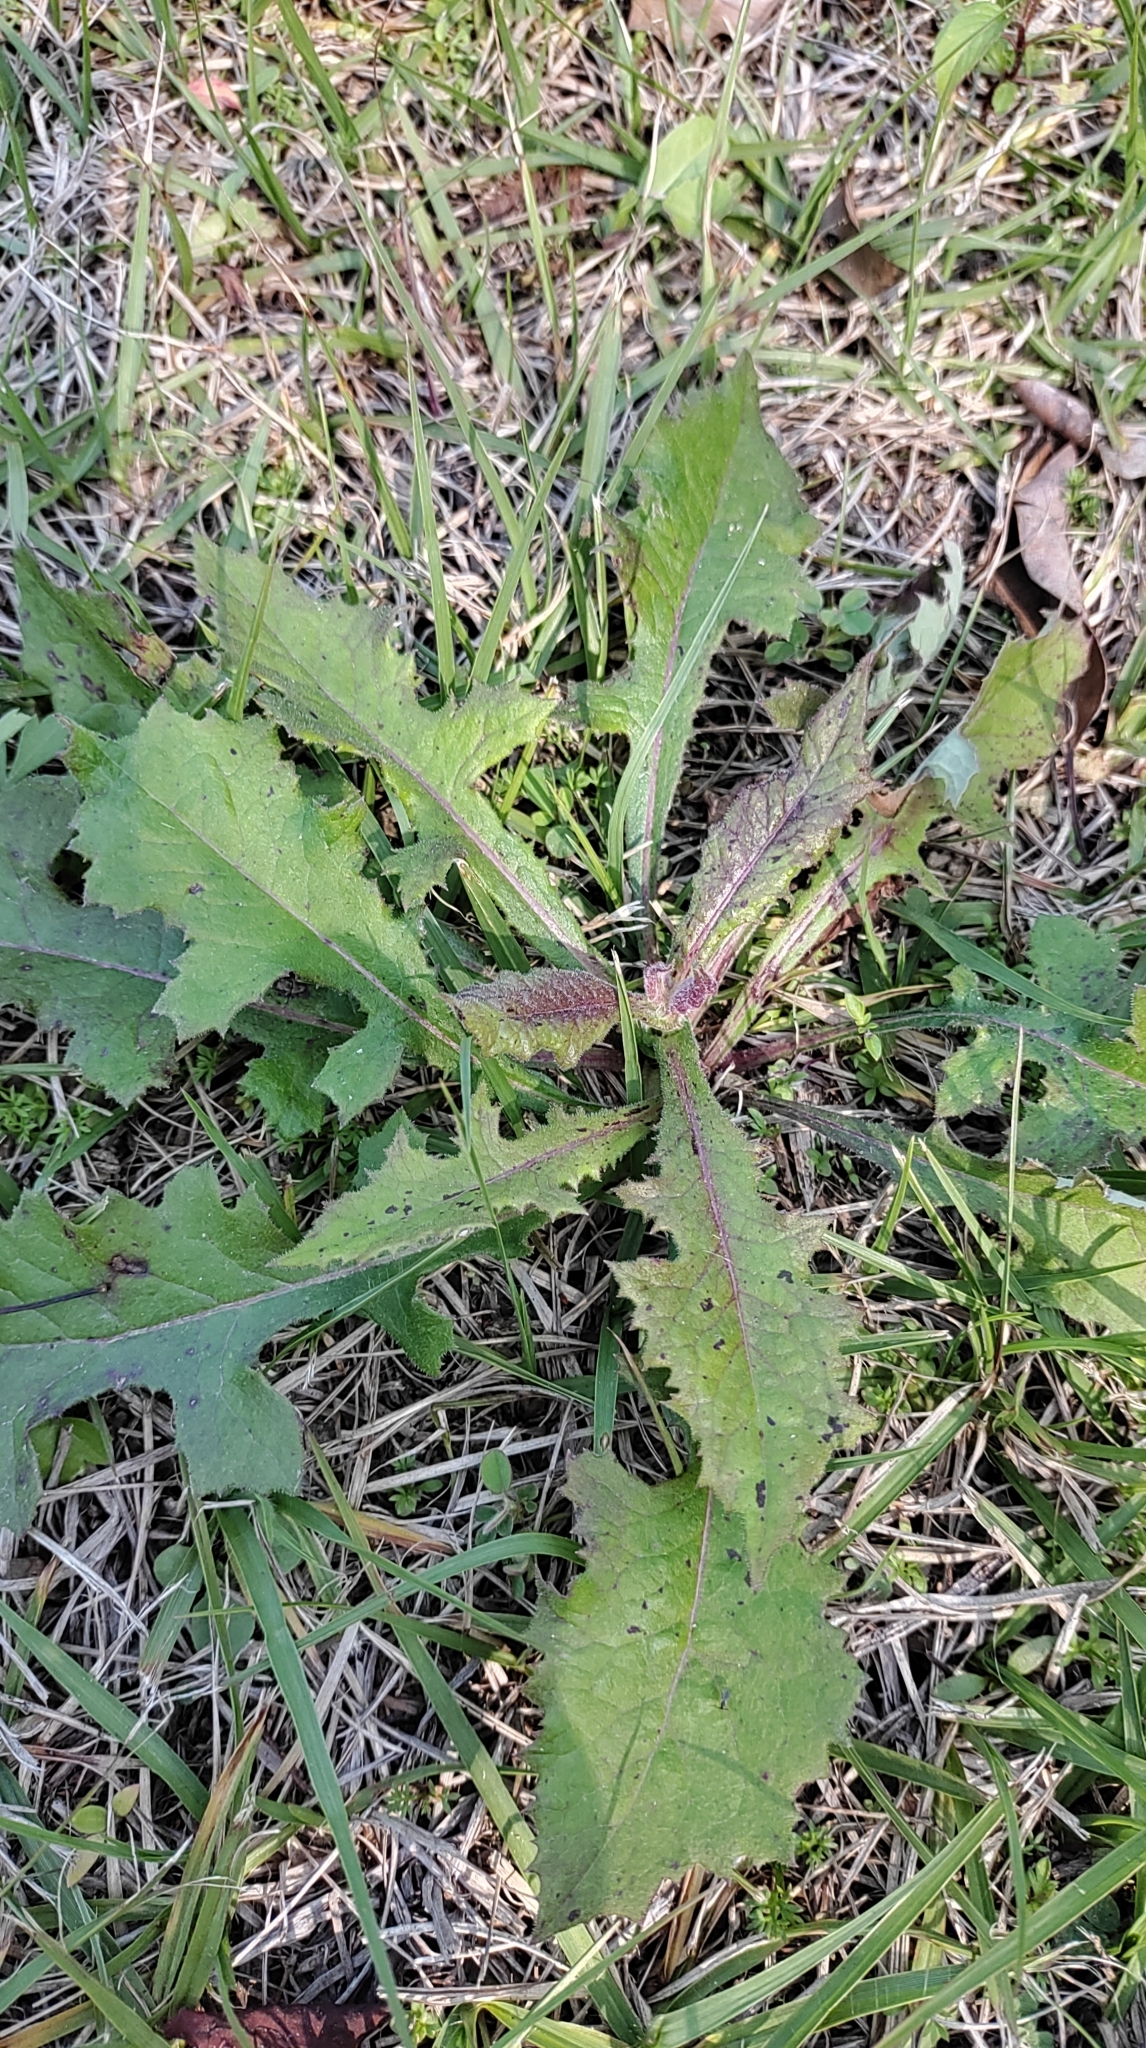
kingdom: Plantae
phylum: Tracheophyta
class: Magnoliopsida
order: Asterales
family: Asteraceae
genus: Sonchus
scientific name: Sonchus asper
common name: Prickly sow-thistle
